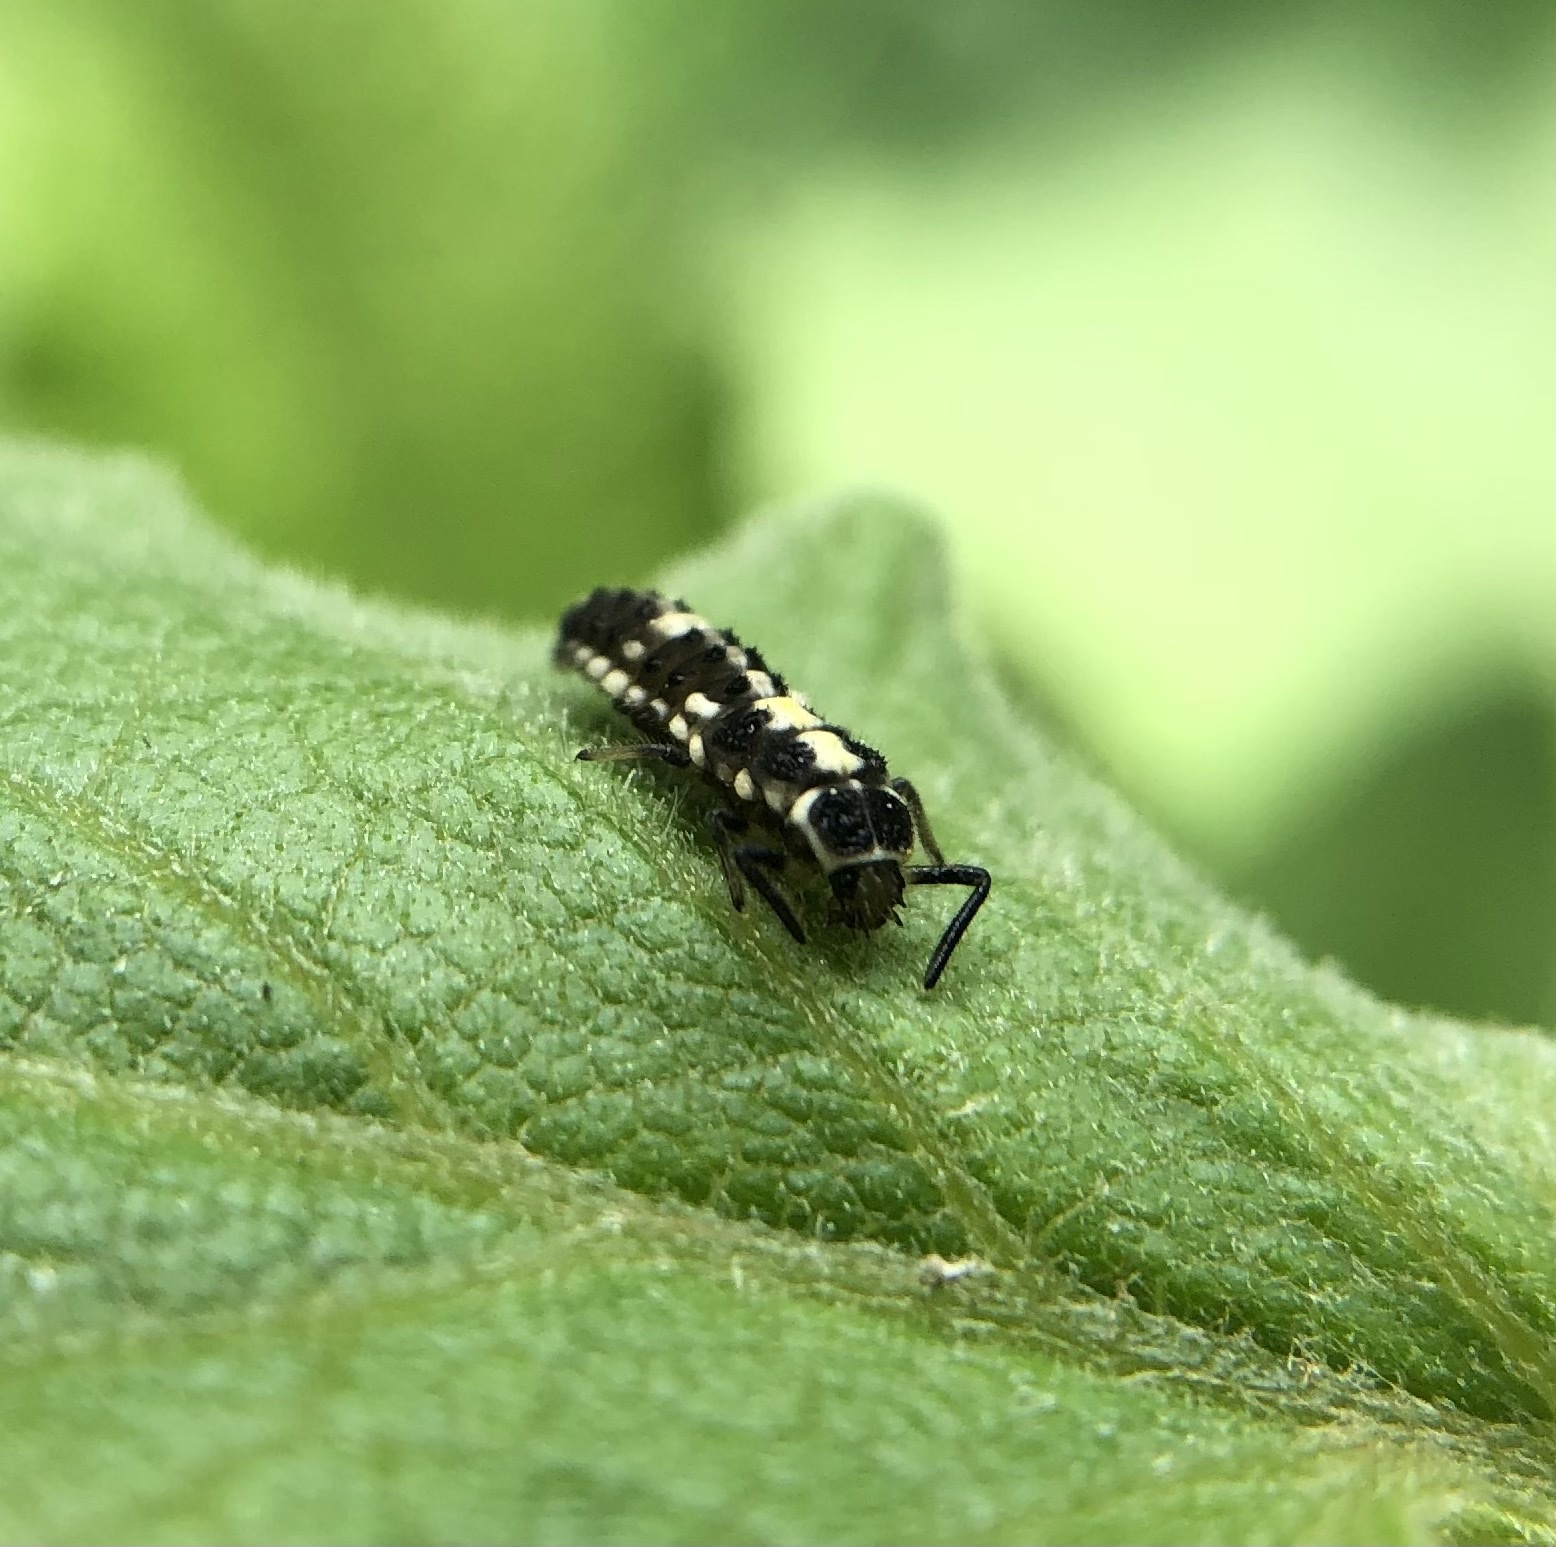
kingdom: Animalia
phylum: Arthropoda
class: Insecta
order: Coleoptera
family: Coccinellidae
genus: Propylaea
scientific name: Propylaea quatuordecimpunctata
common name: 14-spotted ladybird beetle
